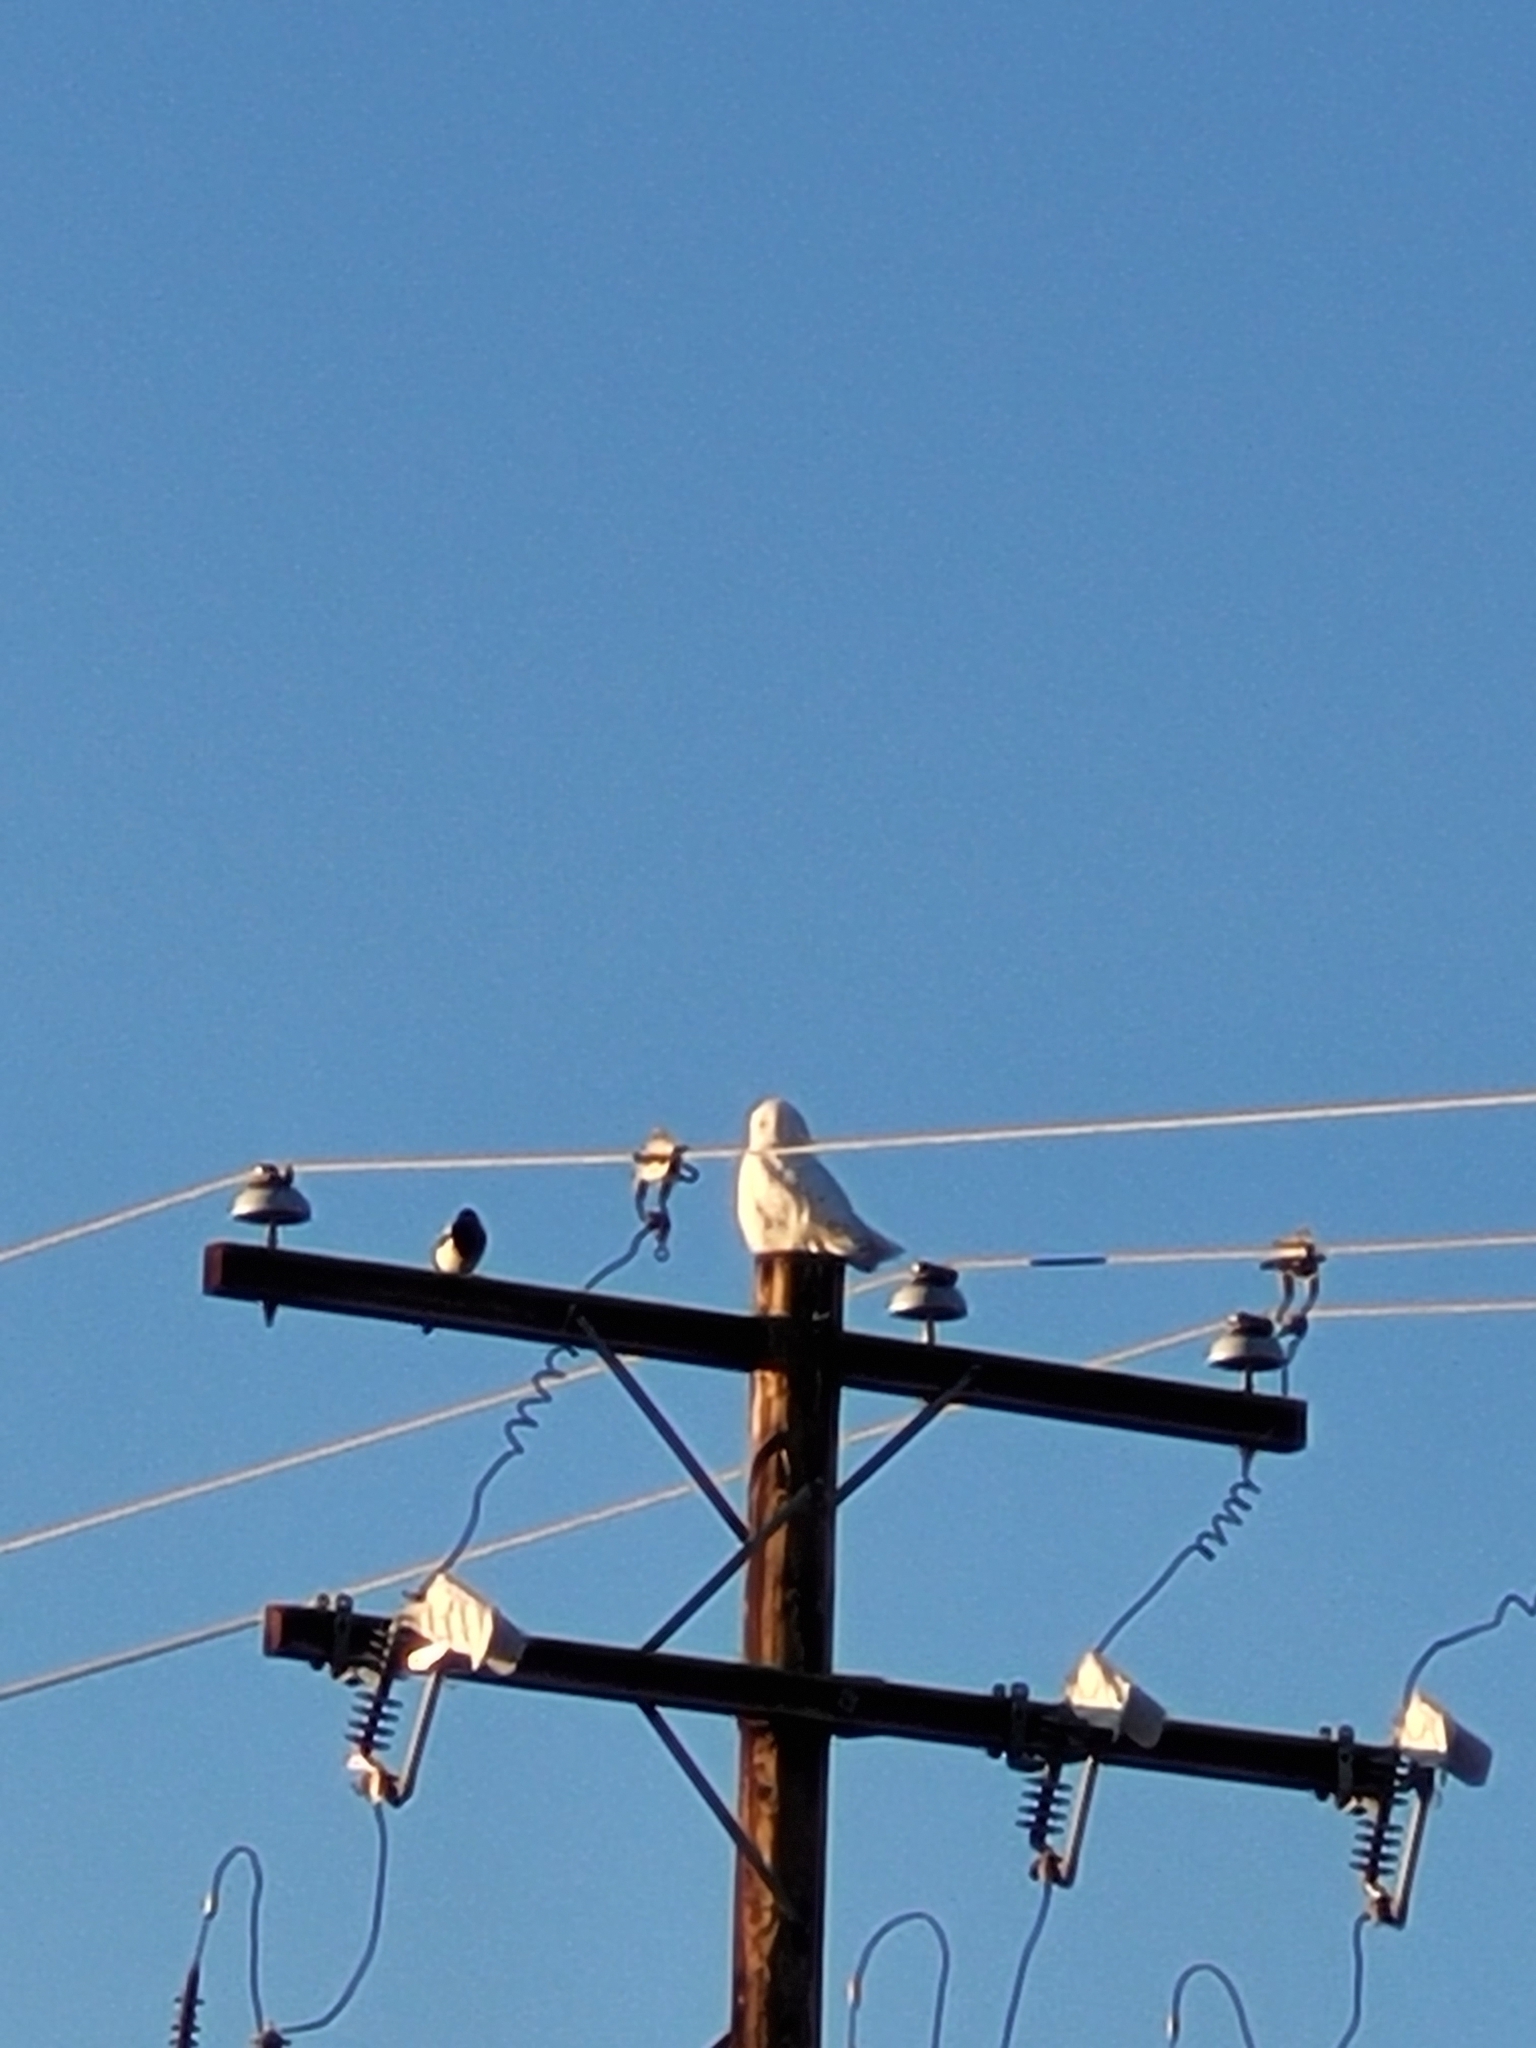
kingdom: Animalia
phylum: Chordata
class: Aves
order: Passeriformes
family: Corvidae
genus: Pica
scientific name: Pica hudsonia
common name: Black-billed magpie
